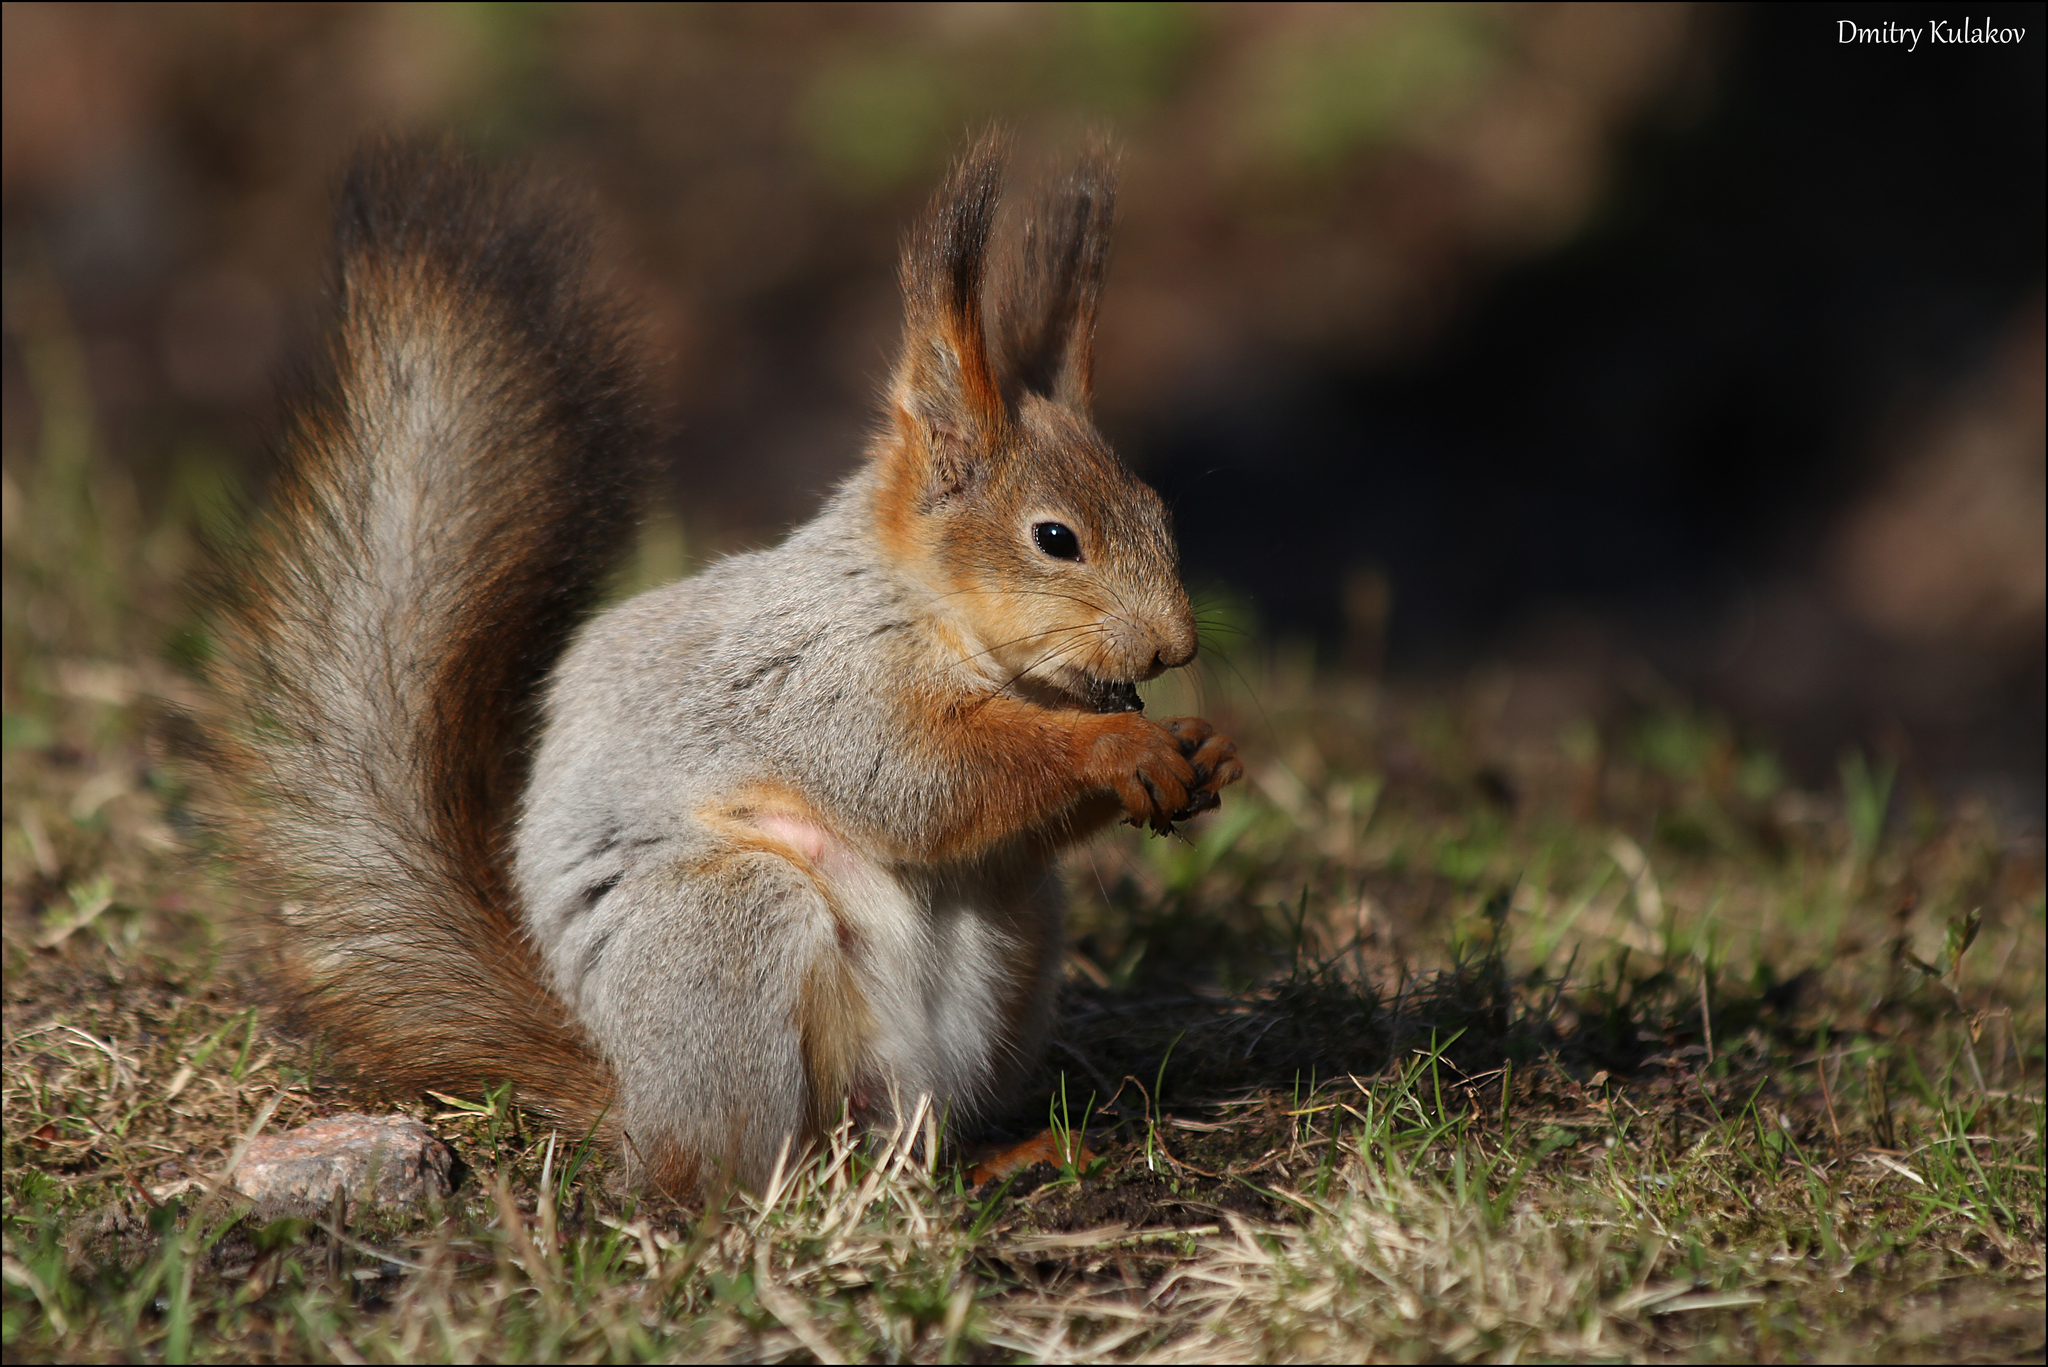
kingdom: Animalia
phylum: Chordata
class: Mammalia
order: Rodentia
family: Sciuridae
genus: Sciurus
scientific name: Sciurus vulgaris
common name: Eurasian red squirrel
